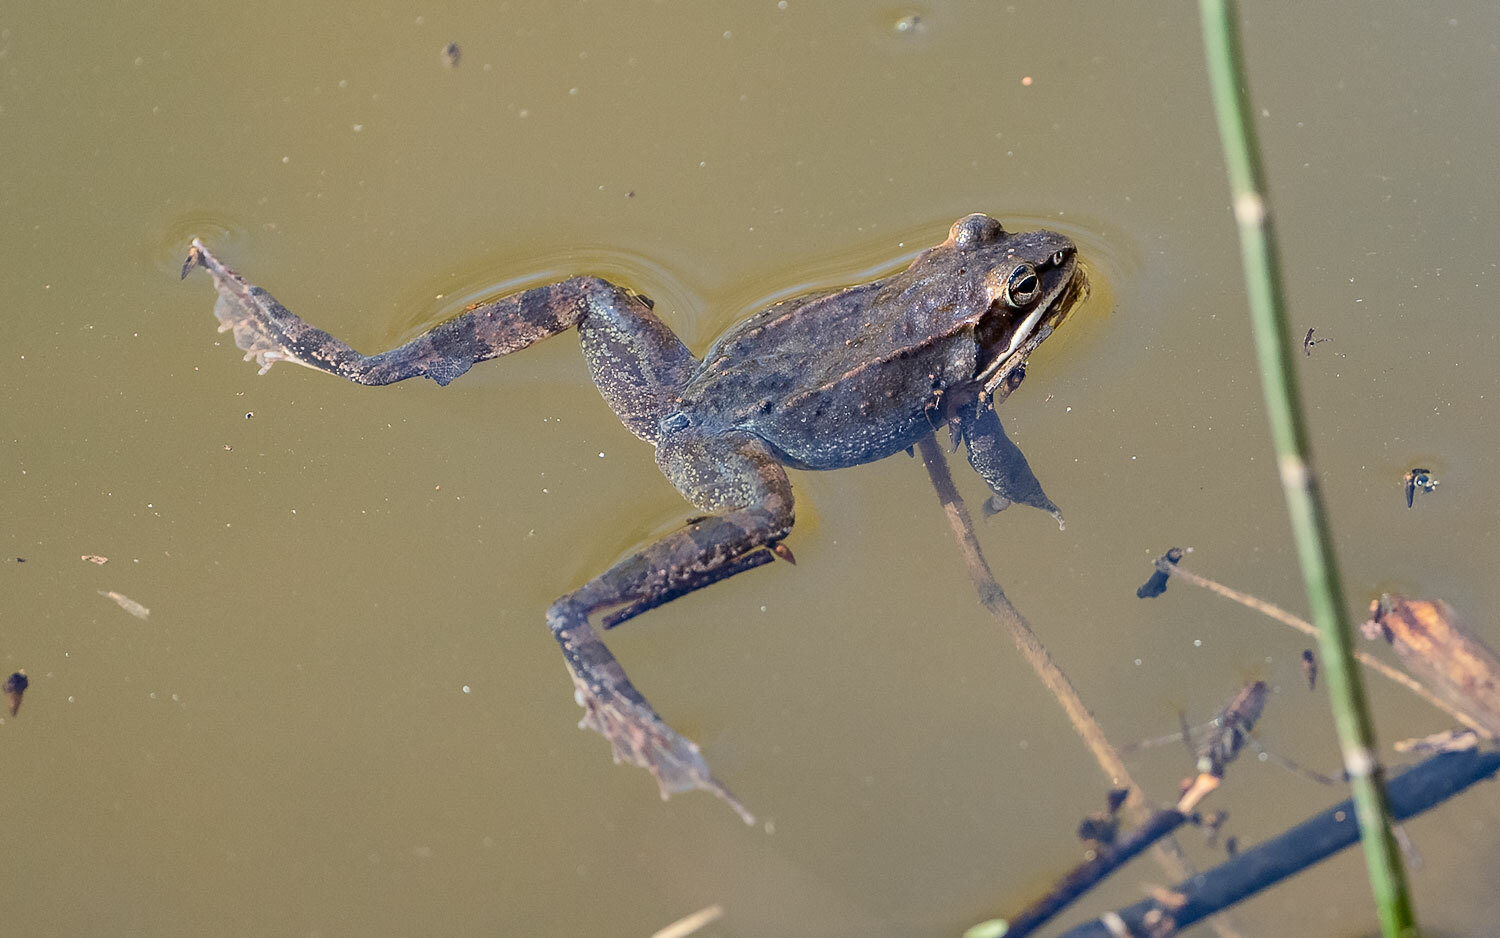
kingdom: Animalia
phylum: Chordata
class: Amphibia
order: Anura
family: Ranidae
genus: Lithobates
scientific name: Lithobates sylvaticus
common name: Wood frog
